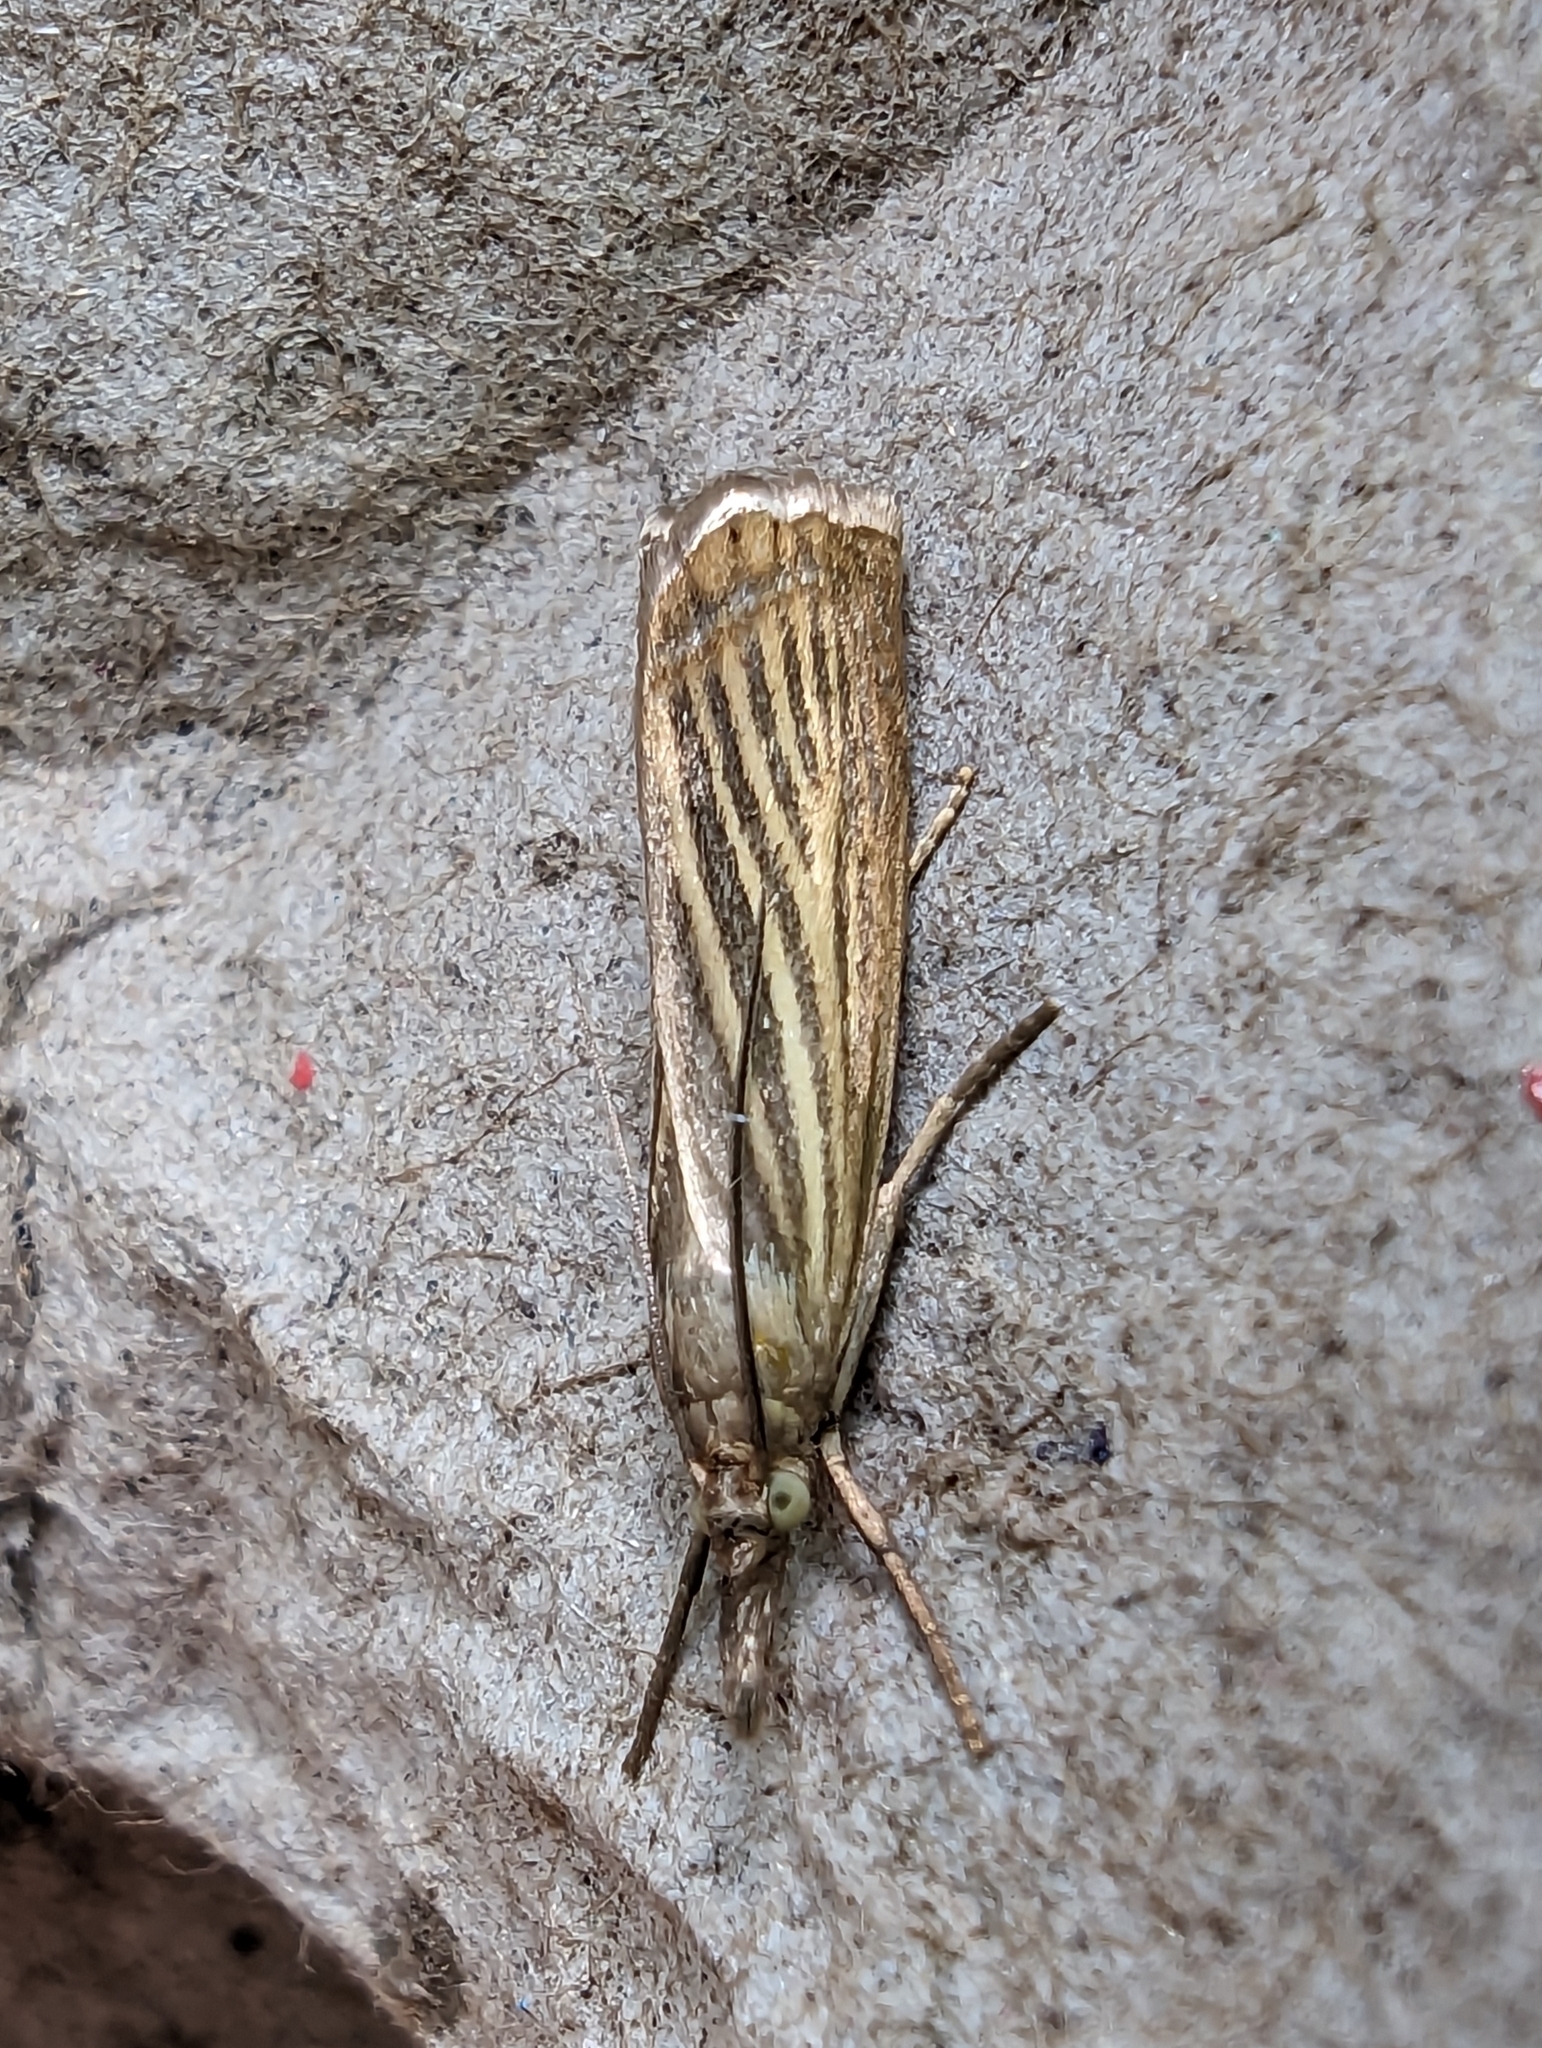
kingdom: Animalia
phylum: Arthropoda
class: Insecta
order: Lepidoptera
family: Crambidae
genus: Chrysoteuchia
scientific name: Chrysoteuchia culmella
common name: Garden grass-veneer
